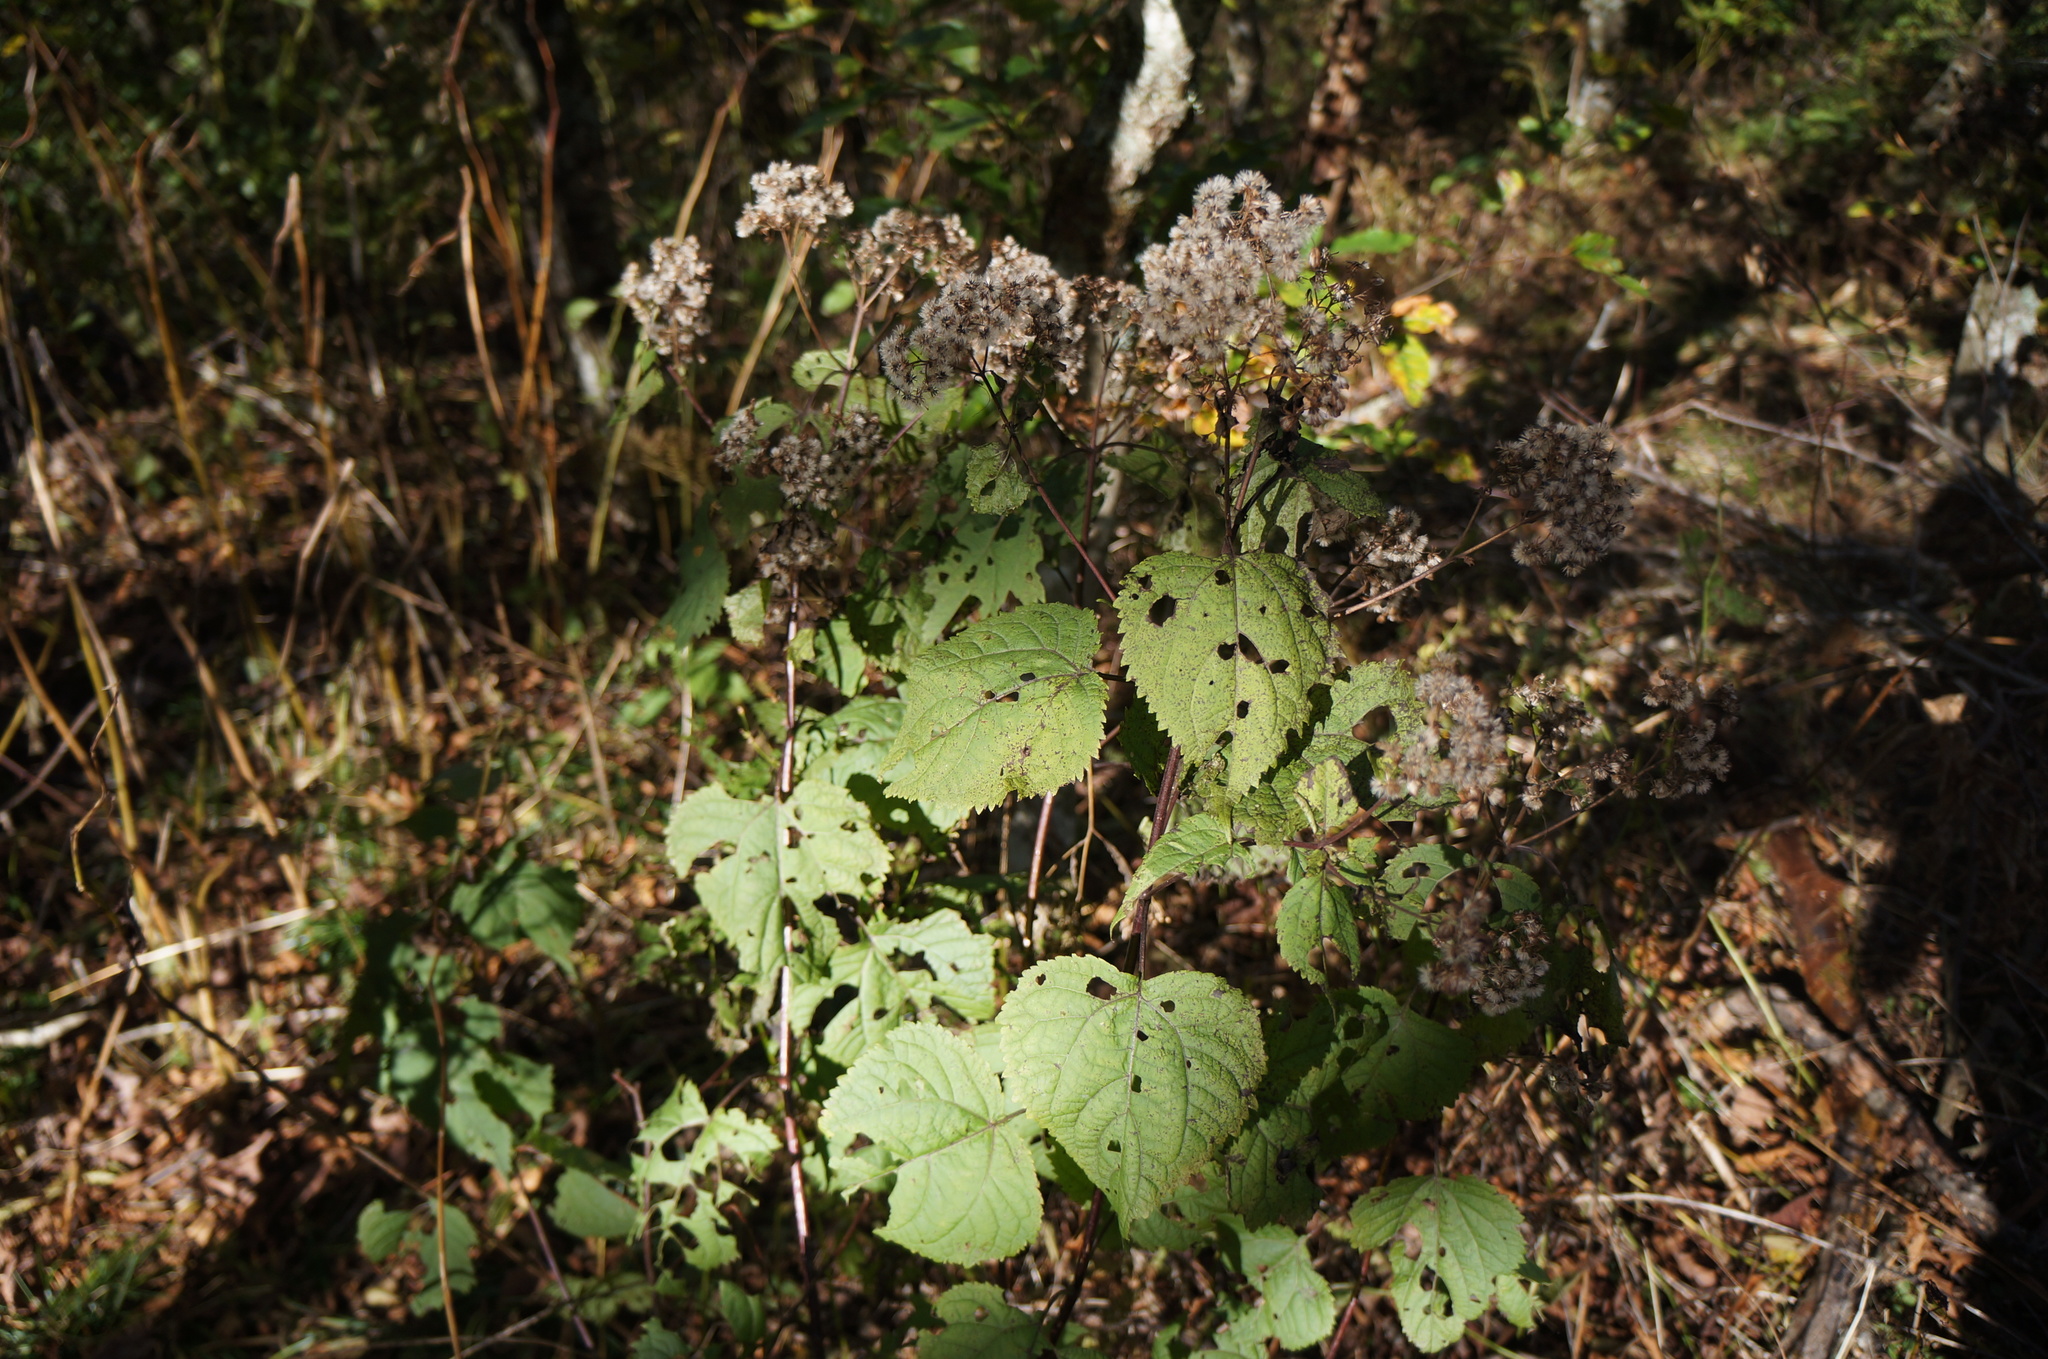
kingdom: Plantae
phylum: Tracheophyta
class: Magnoliopsida
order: Asterales
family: Asteraceae
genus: Ageratina
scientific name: Ageratina altissima
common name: White snakeroot
